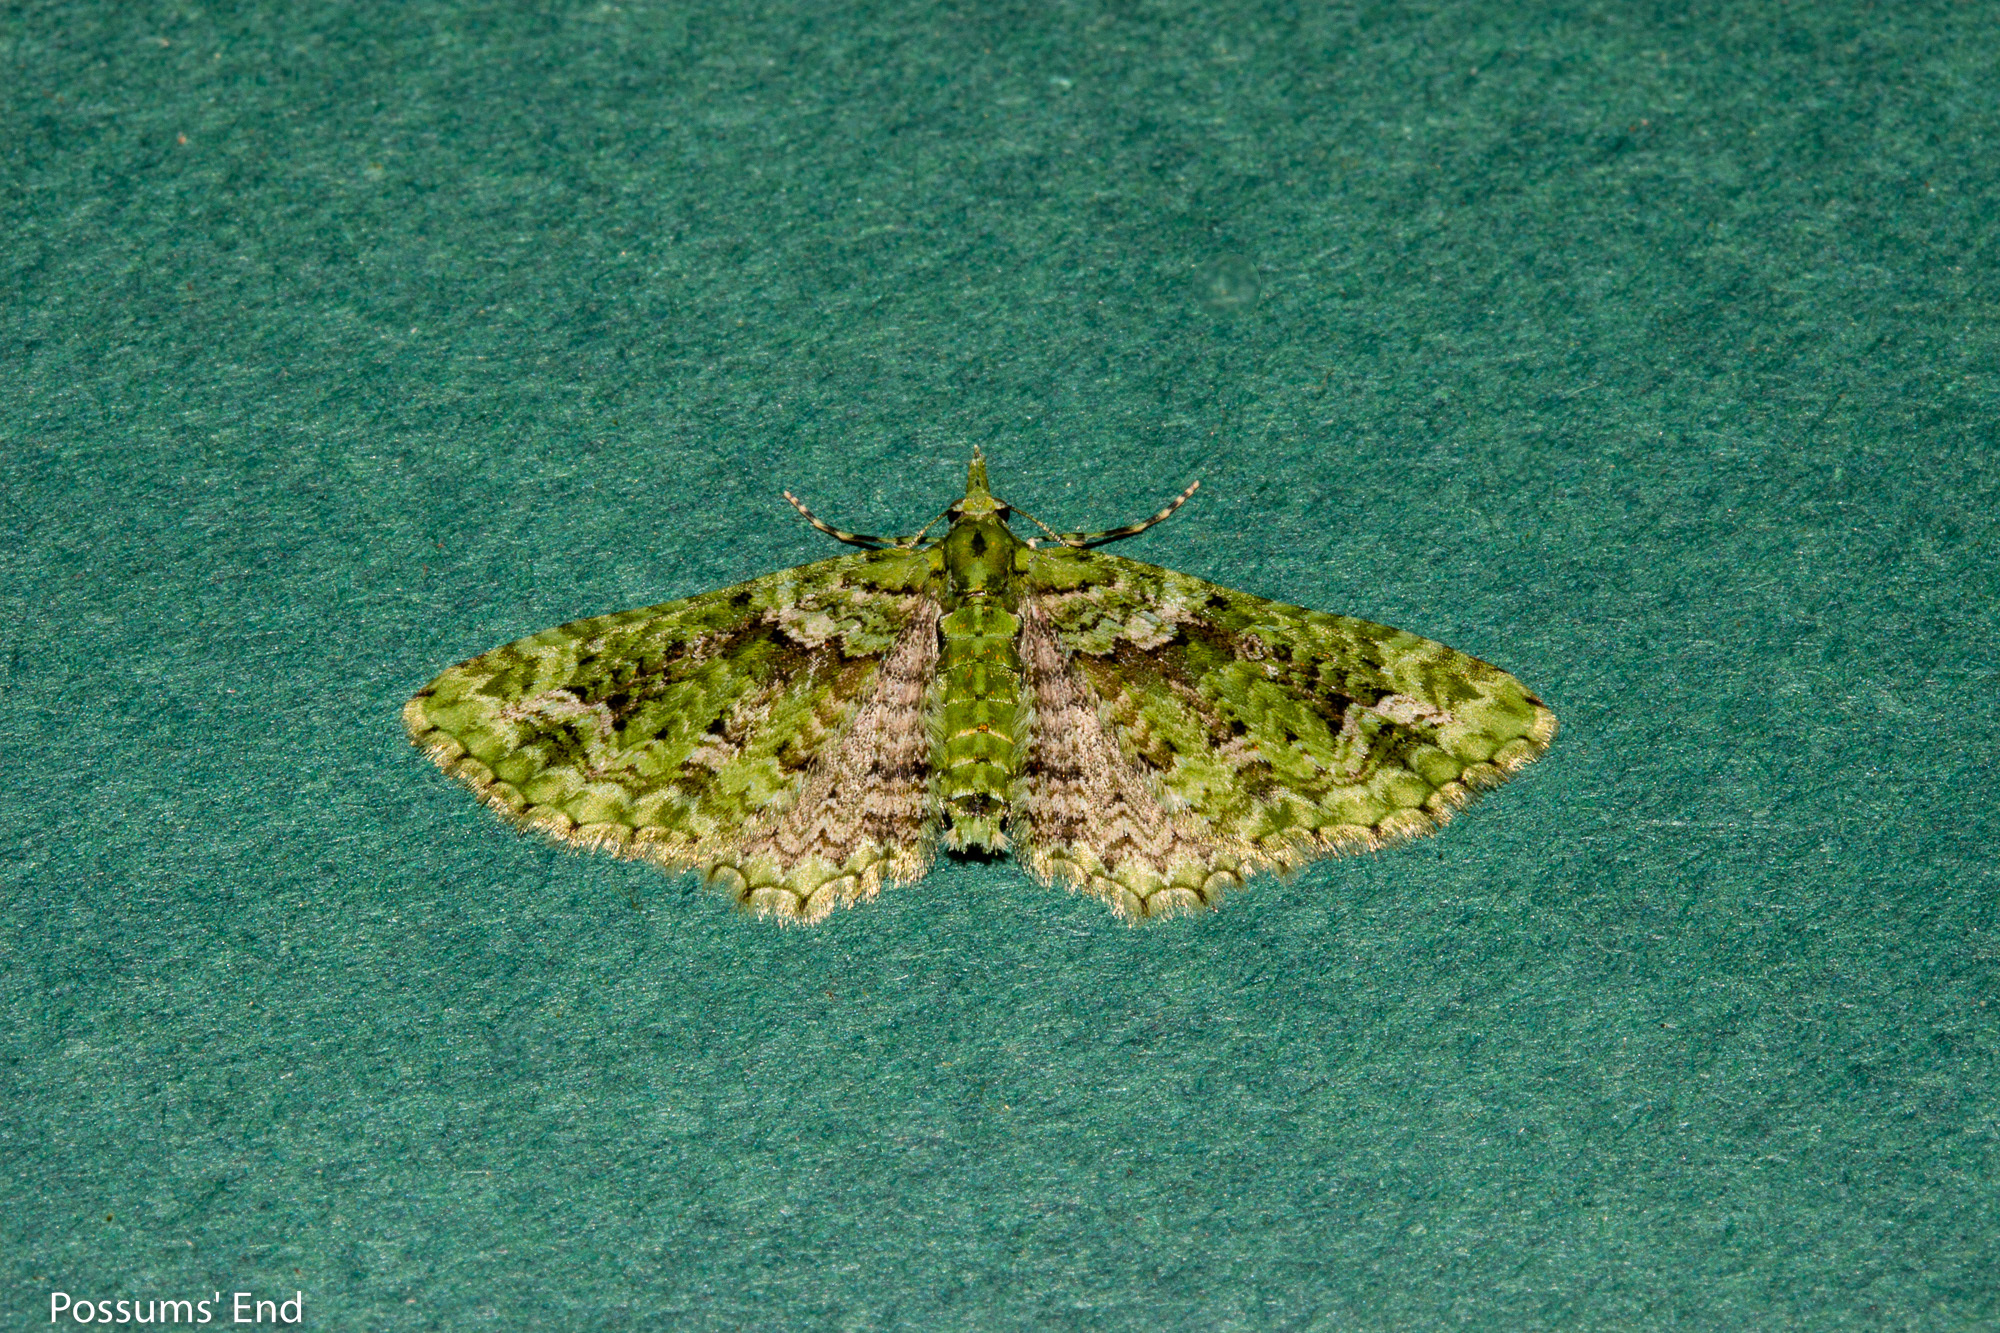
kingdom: Animalia
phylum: Arthropoda
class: Insecta
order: Lepidoptera
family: Geometridae
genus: Pasiphila
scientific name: Pasiphila muscosata
